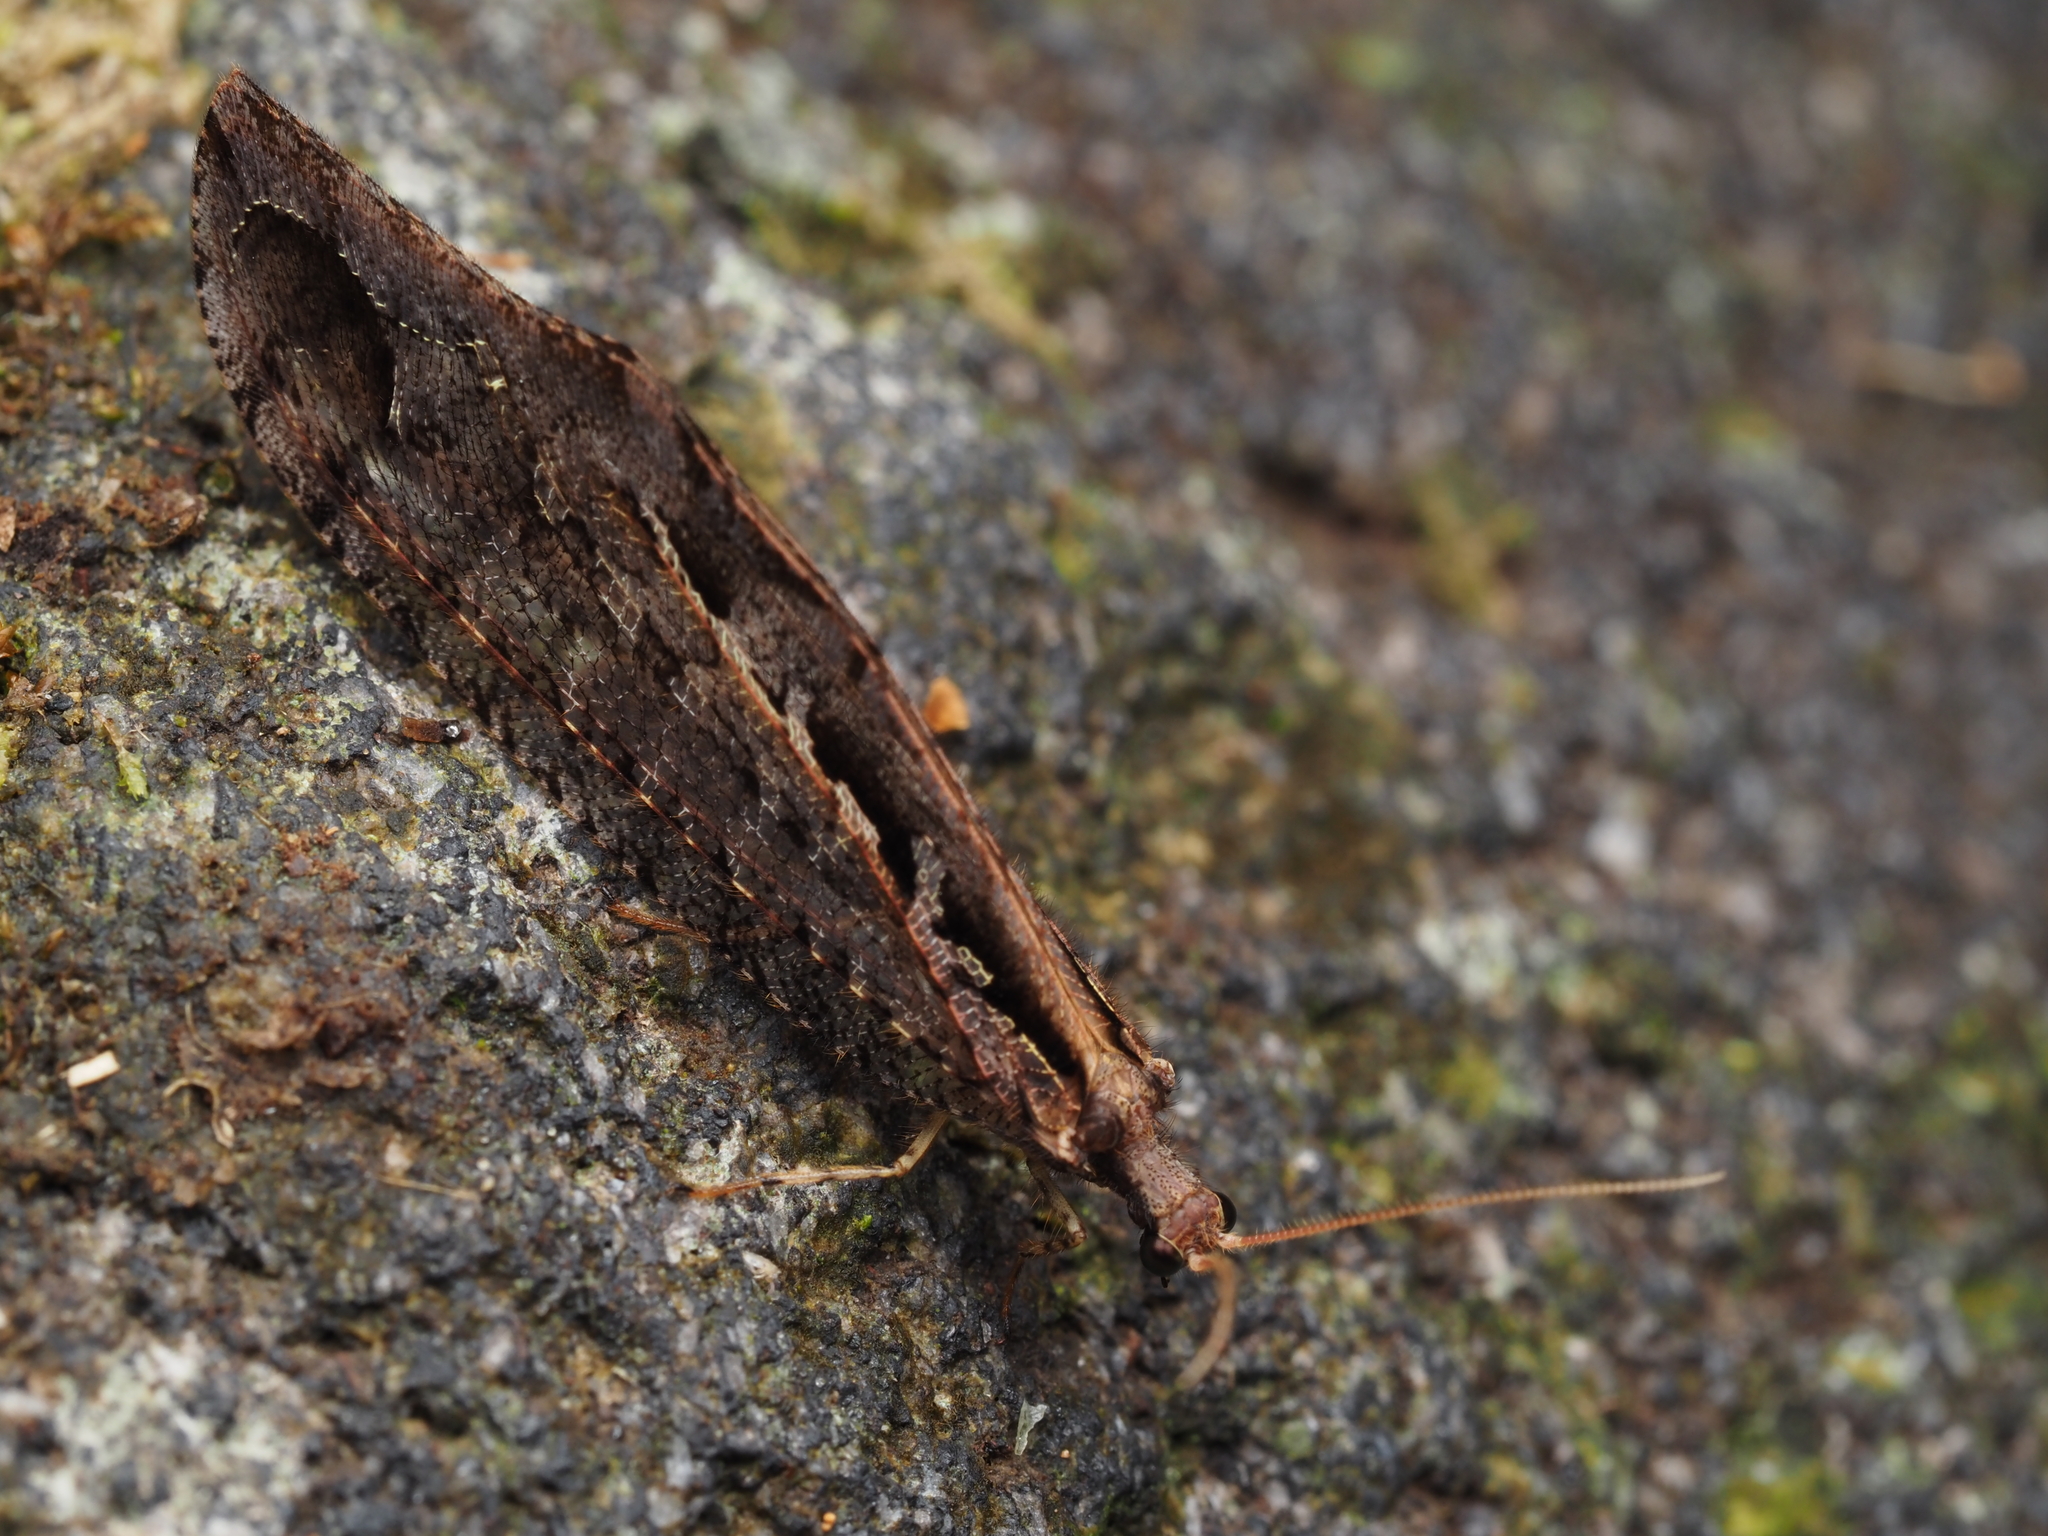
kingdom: Animalia
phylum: Arthropoda
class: Insecta
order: Neuroptera
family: Osmylidae
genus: Kempynus
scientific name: Kempynus incisus
